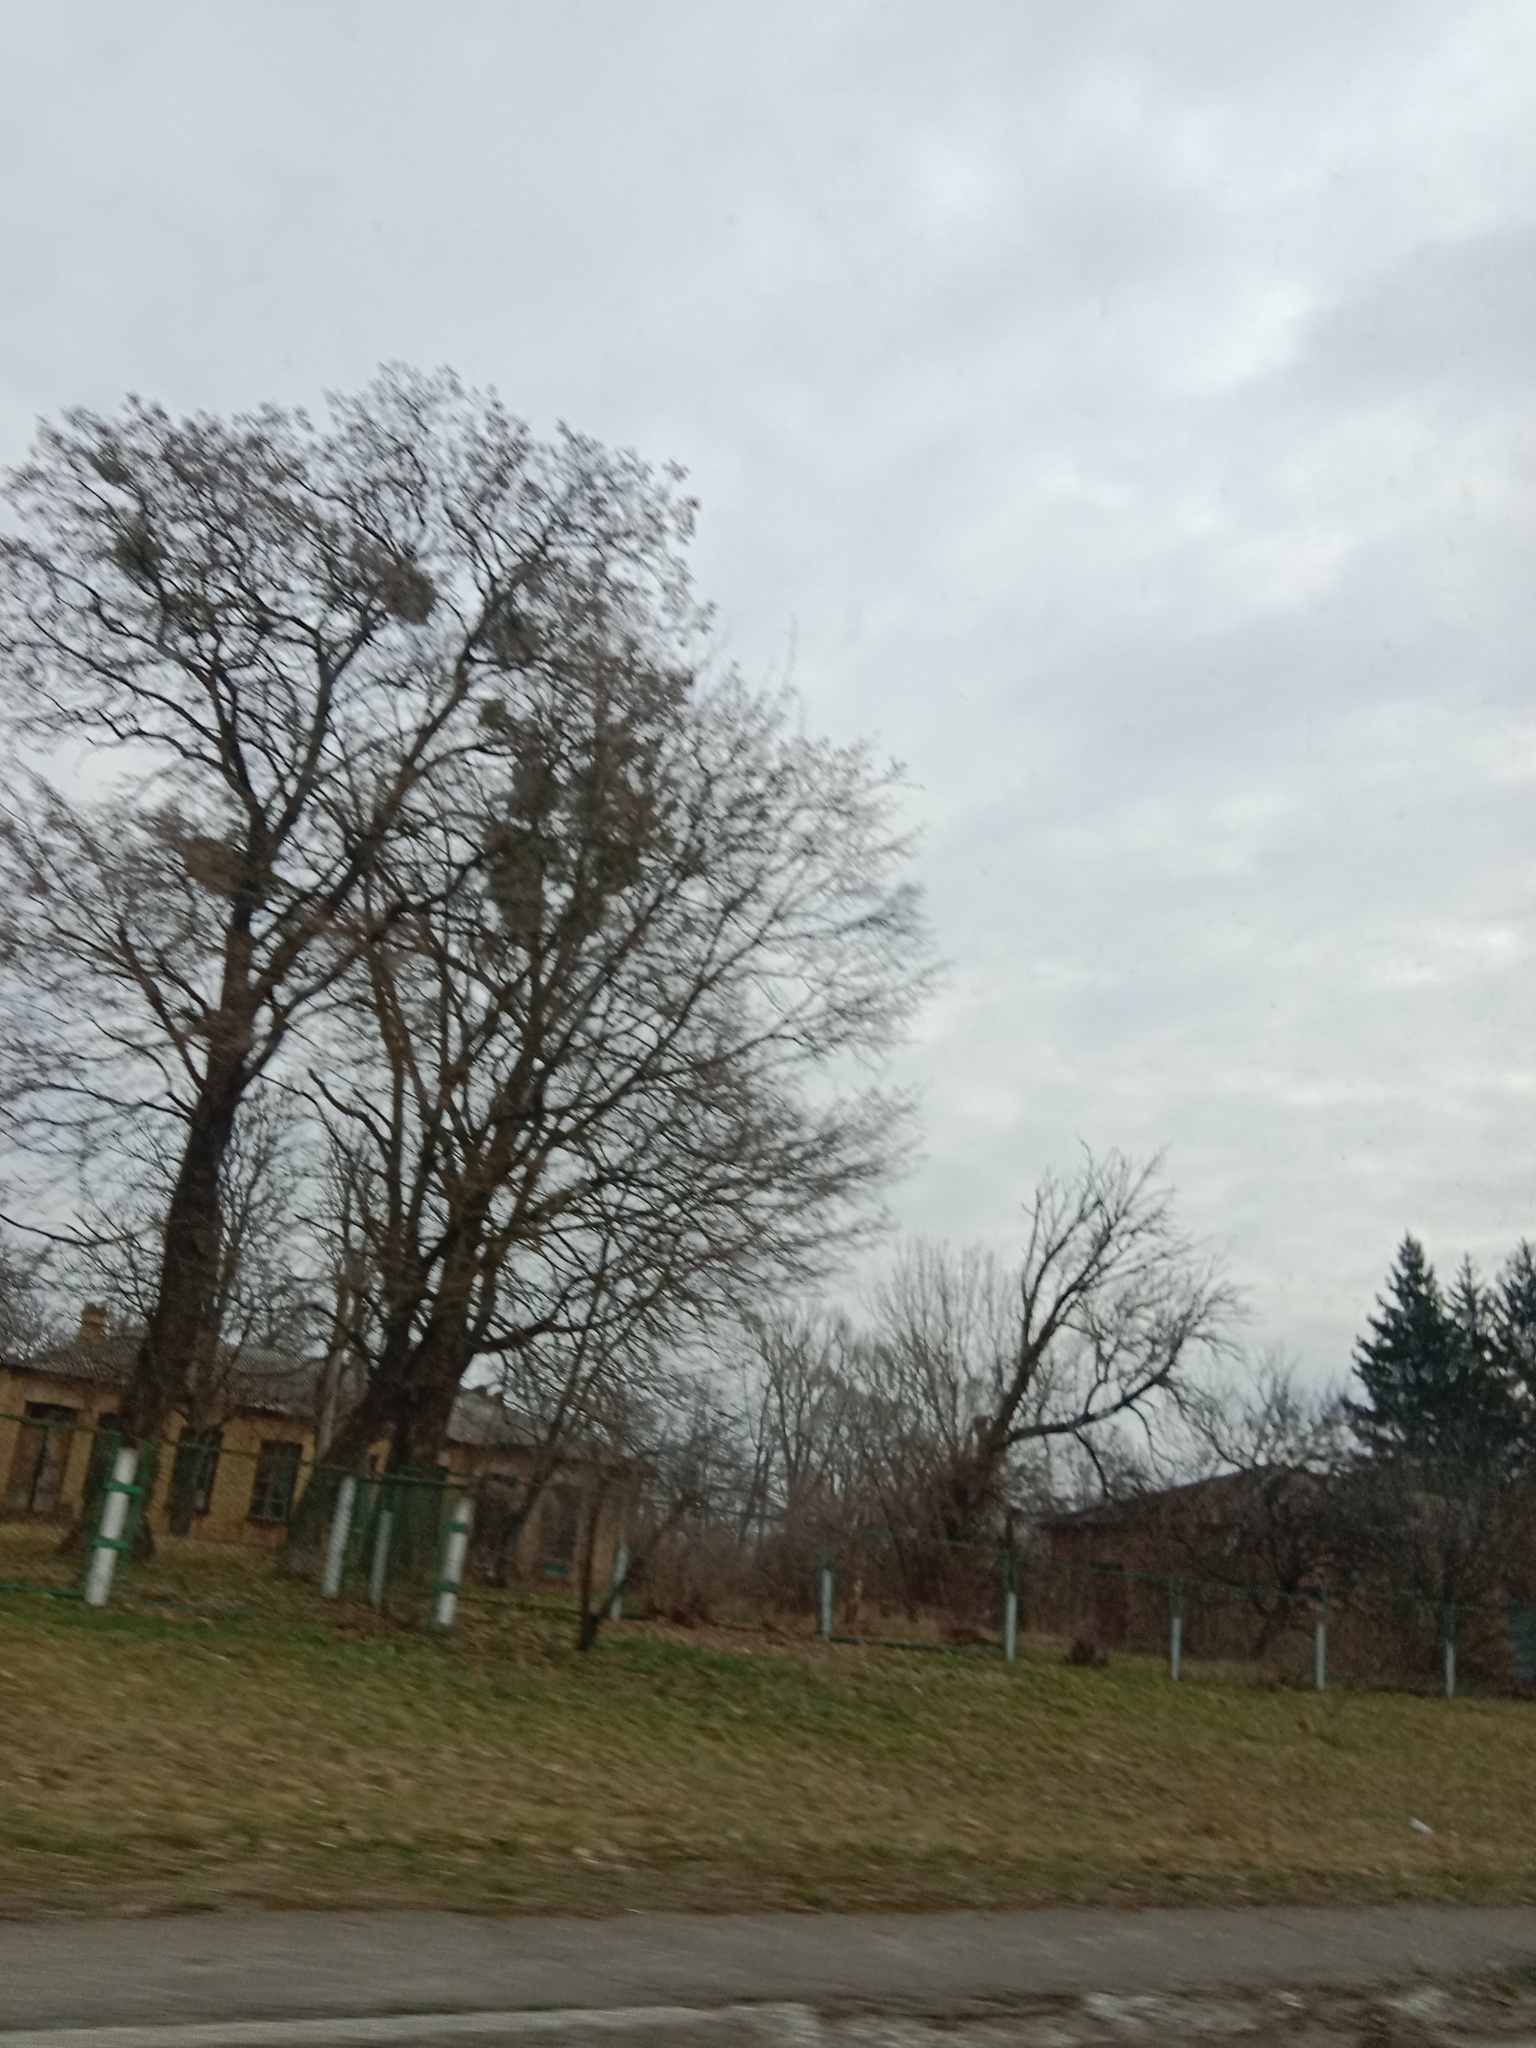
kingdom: Plantae
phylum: Tracheophyta
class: Magnoliopsida
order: Santalales
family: Viscaceae
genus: Viscum
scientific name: Viscum album
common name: Mistletoe
